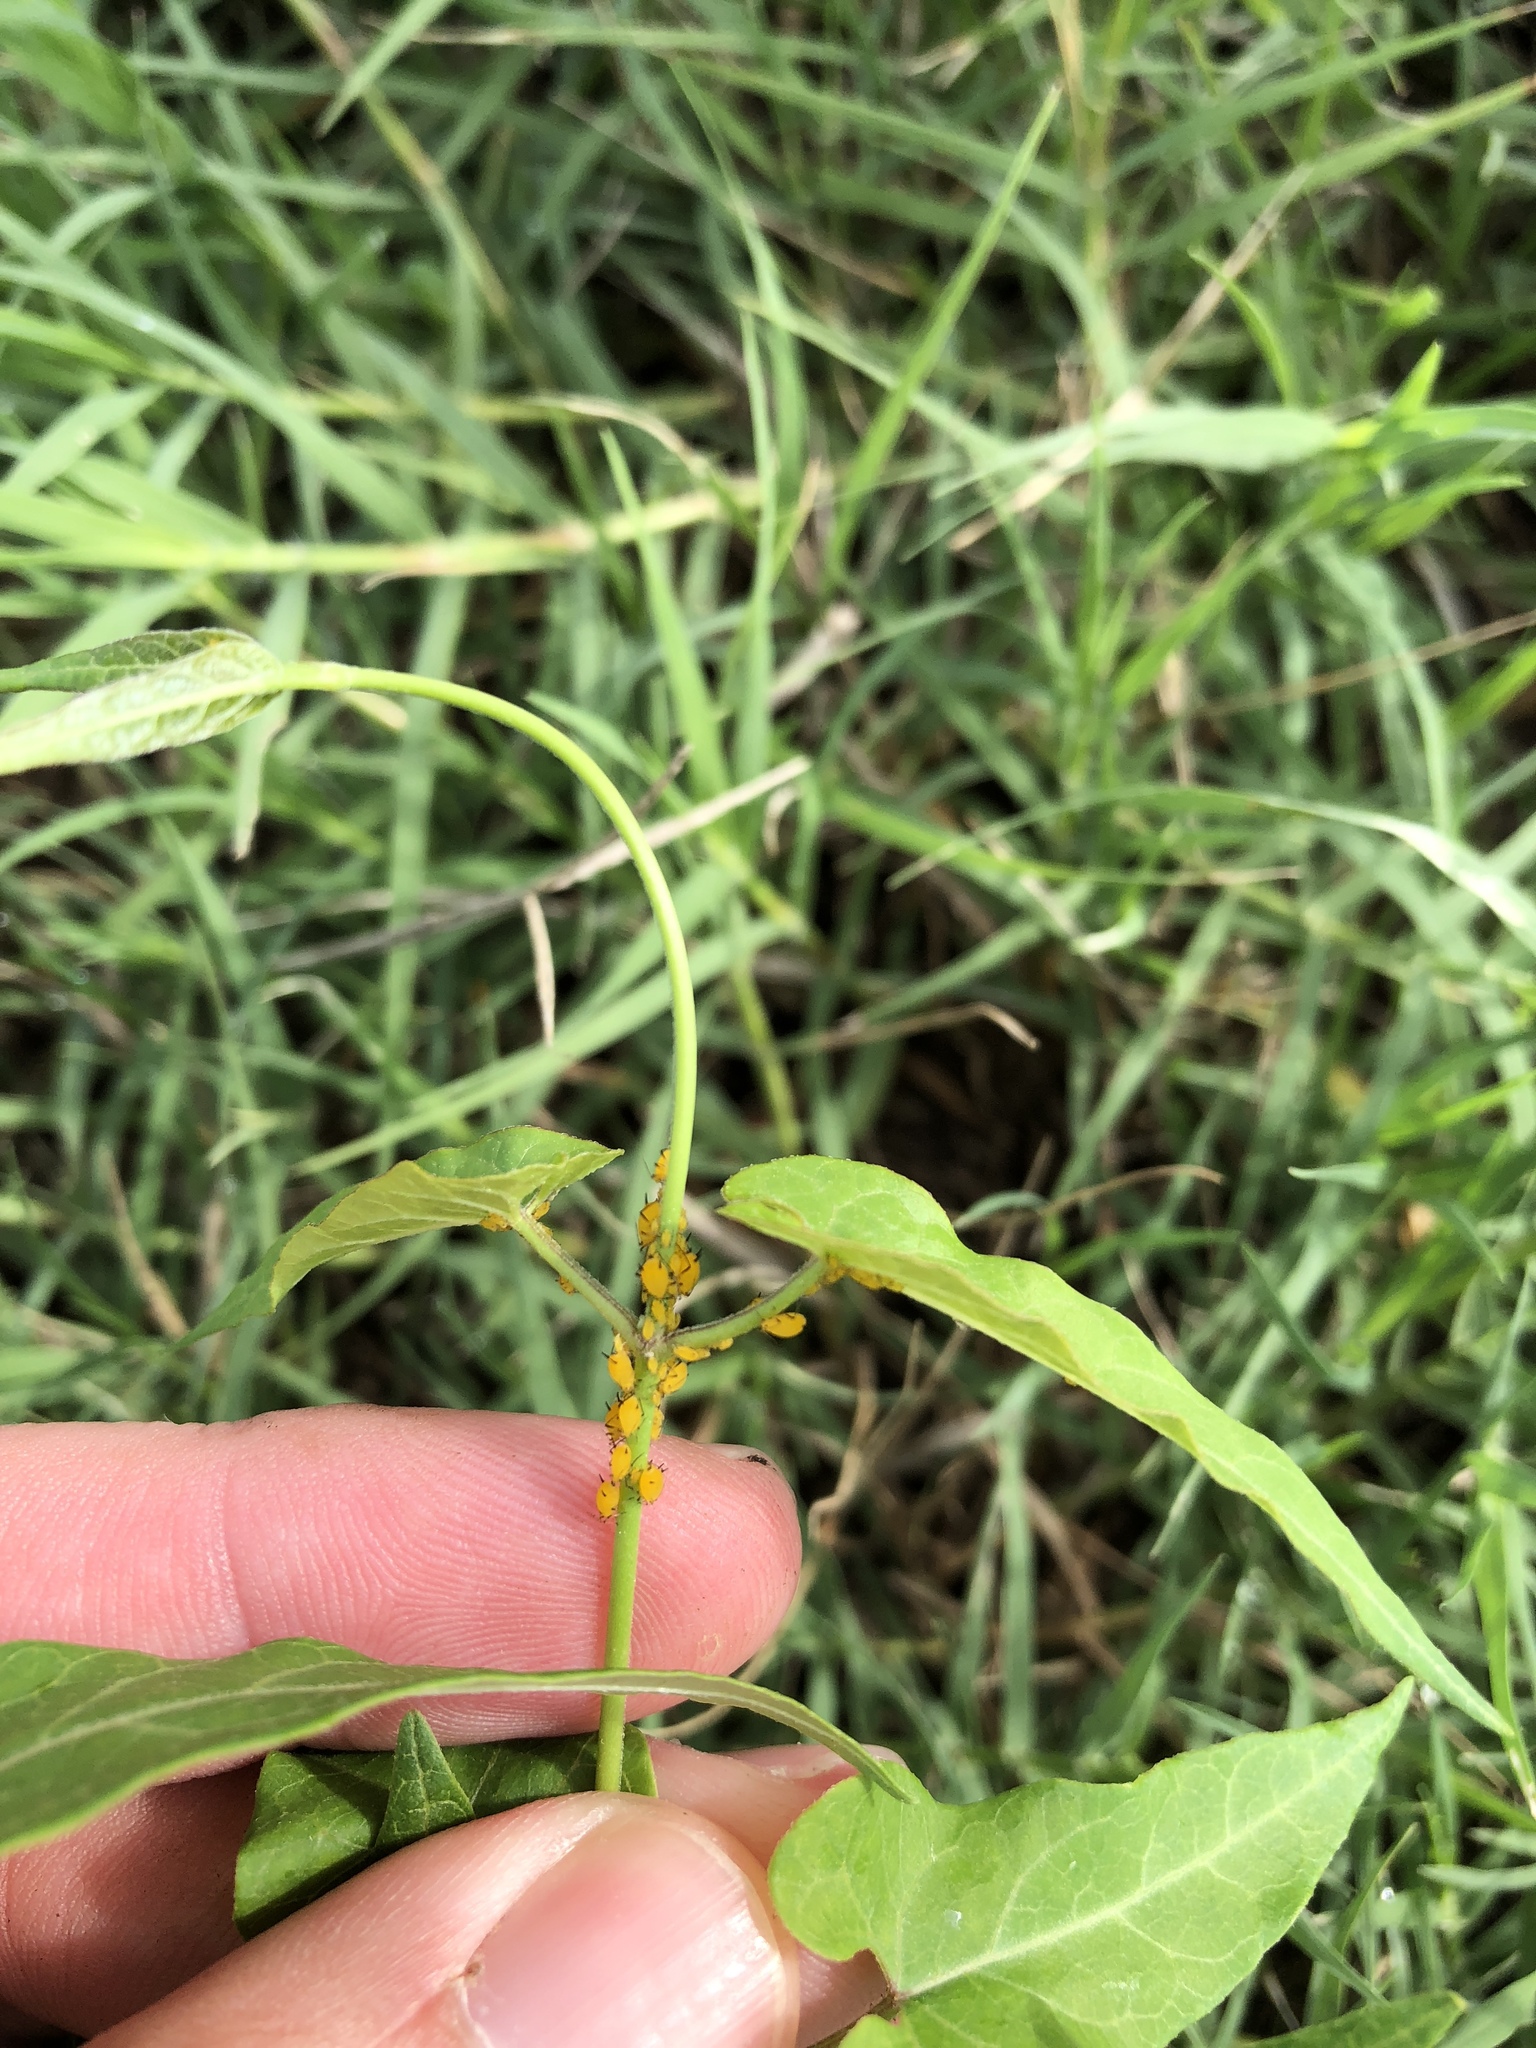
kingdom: Animalia
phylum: Arthropoda
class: Insecta
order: Hemiptera
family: Aphididae
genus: Aphis
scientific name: Aphis nerii
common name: Oleander aphid
